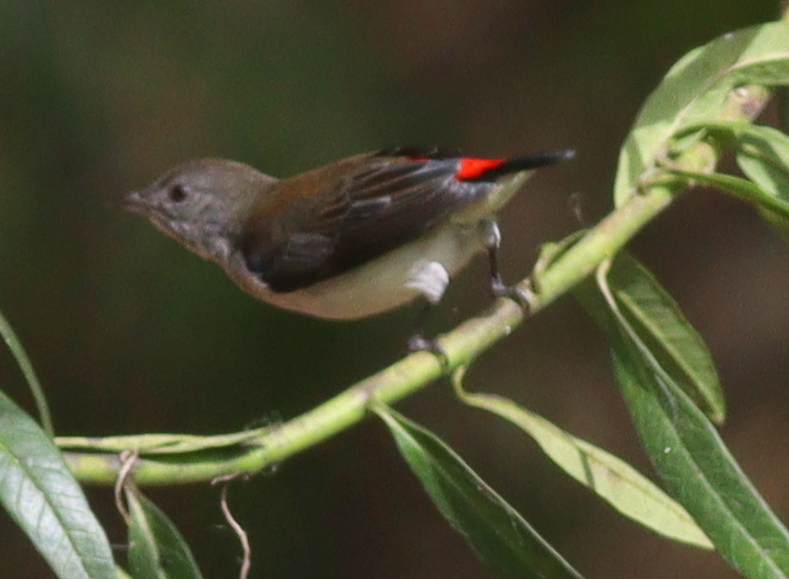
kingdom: Animalia
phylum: Chordata
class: Aves
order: Passeriformes
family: Dicaeidae
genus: Dicaeum
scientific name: Dicaeum maugei
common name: Blue-cheeked flowerpecker
